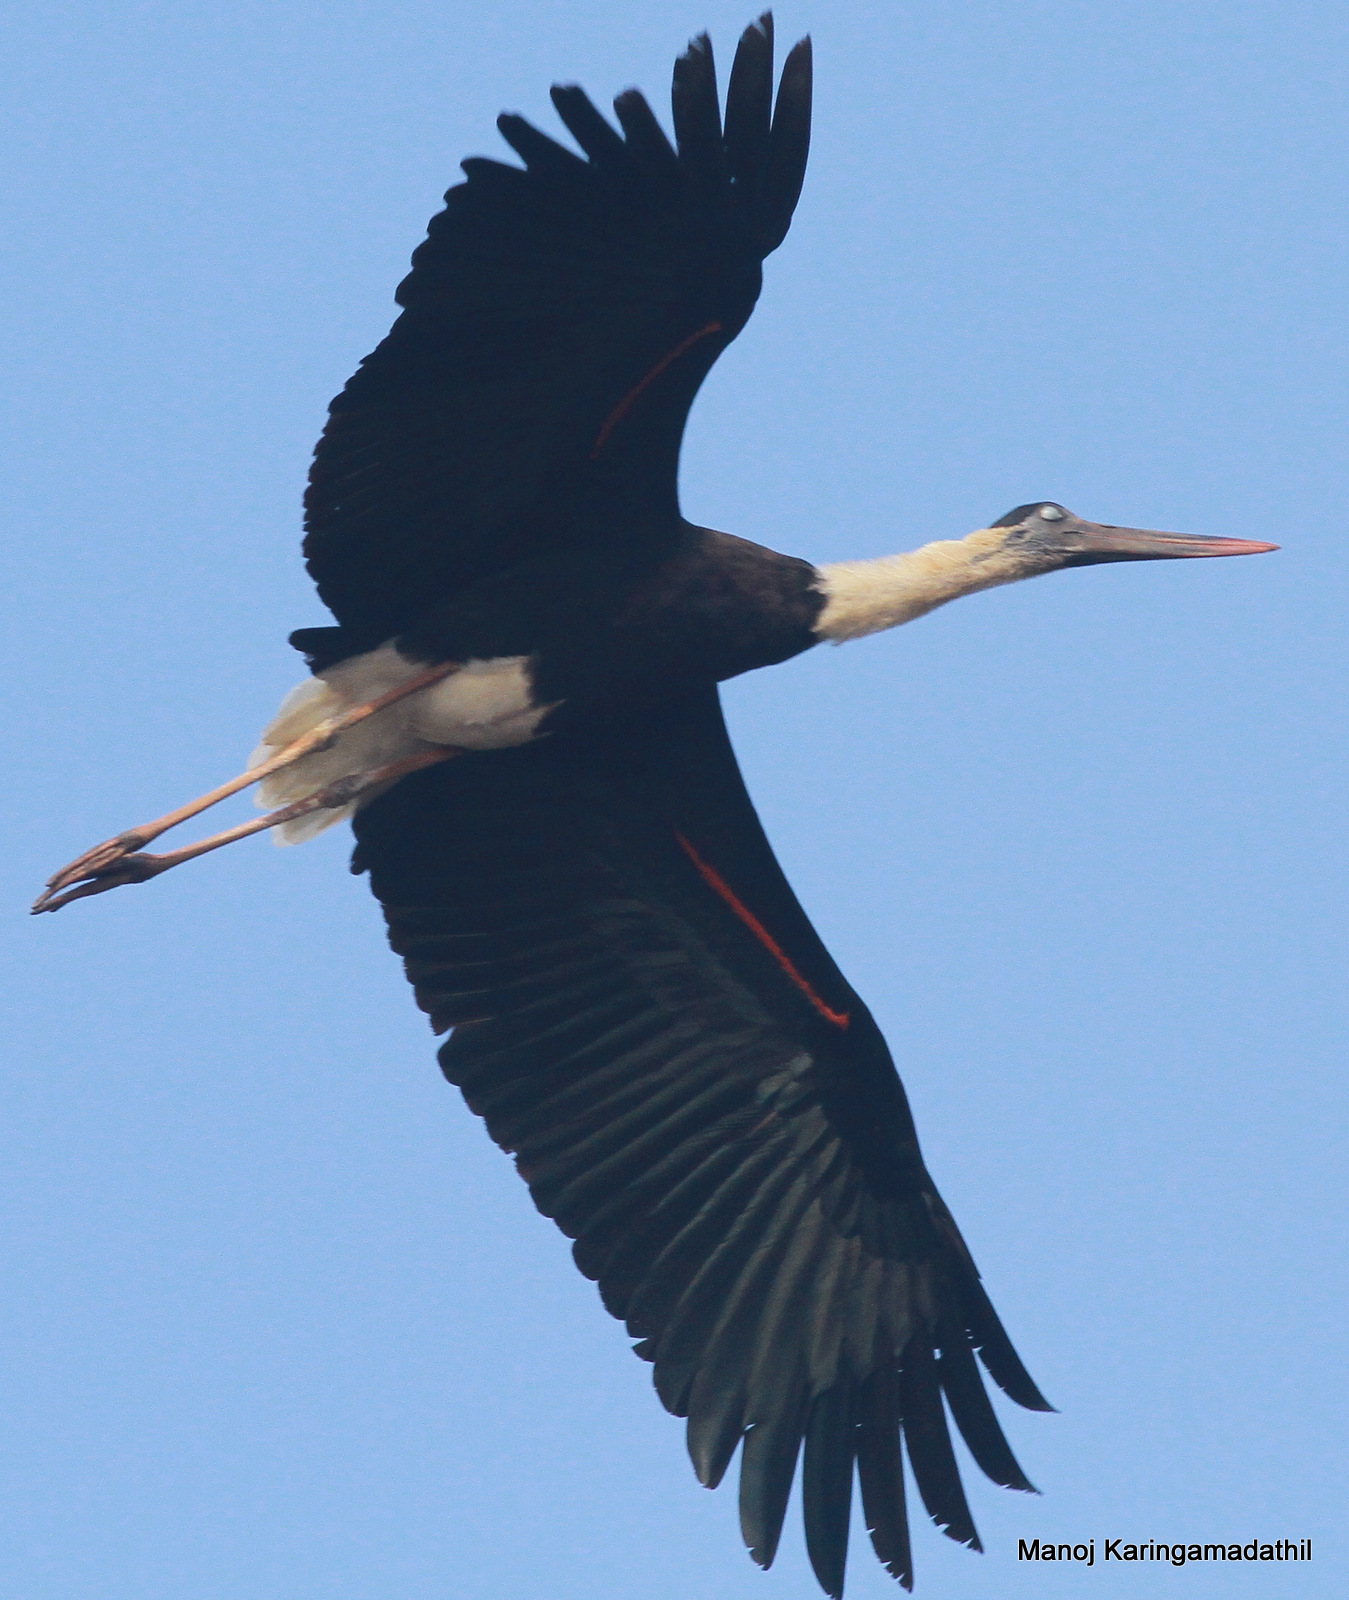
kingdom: Animalia
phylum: Chordata
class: Aves
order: Ciconiiformes
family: Ciconiidae
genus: Ciconia
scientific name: Ciconia episcopus
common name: Woolly-necked stork
